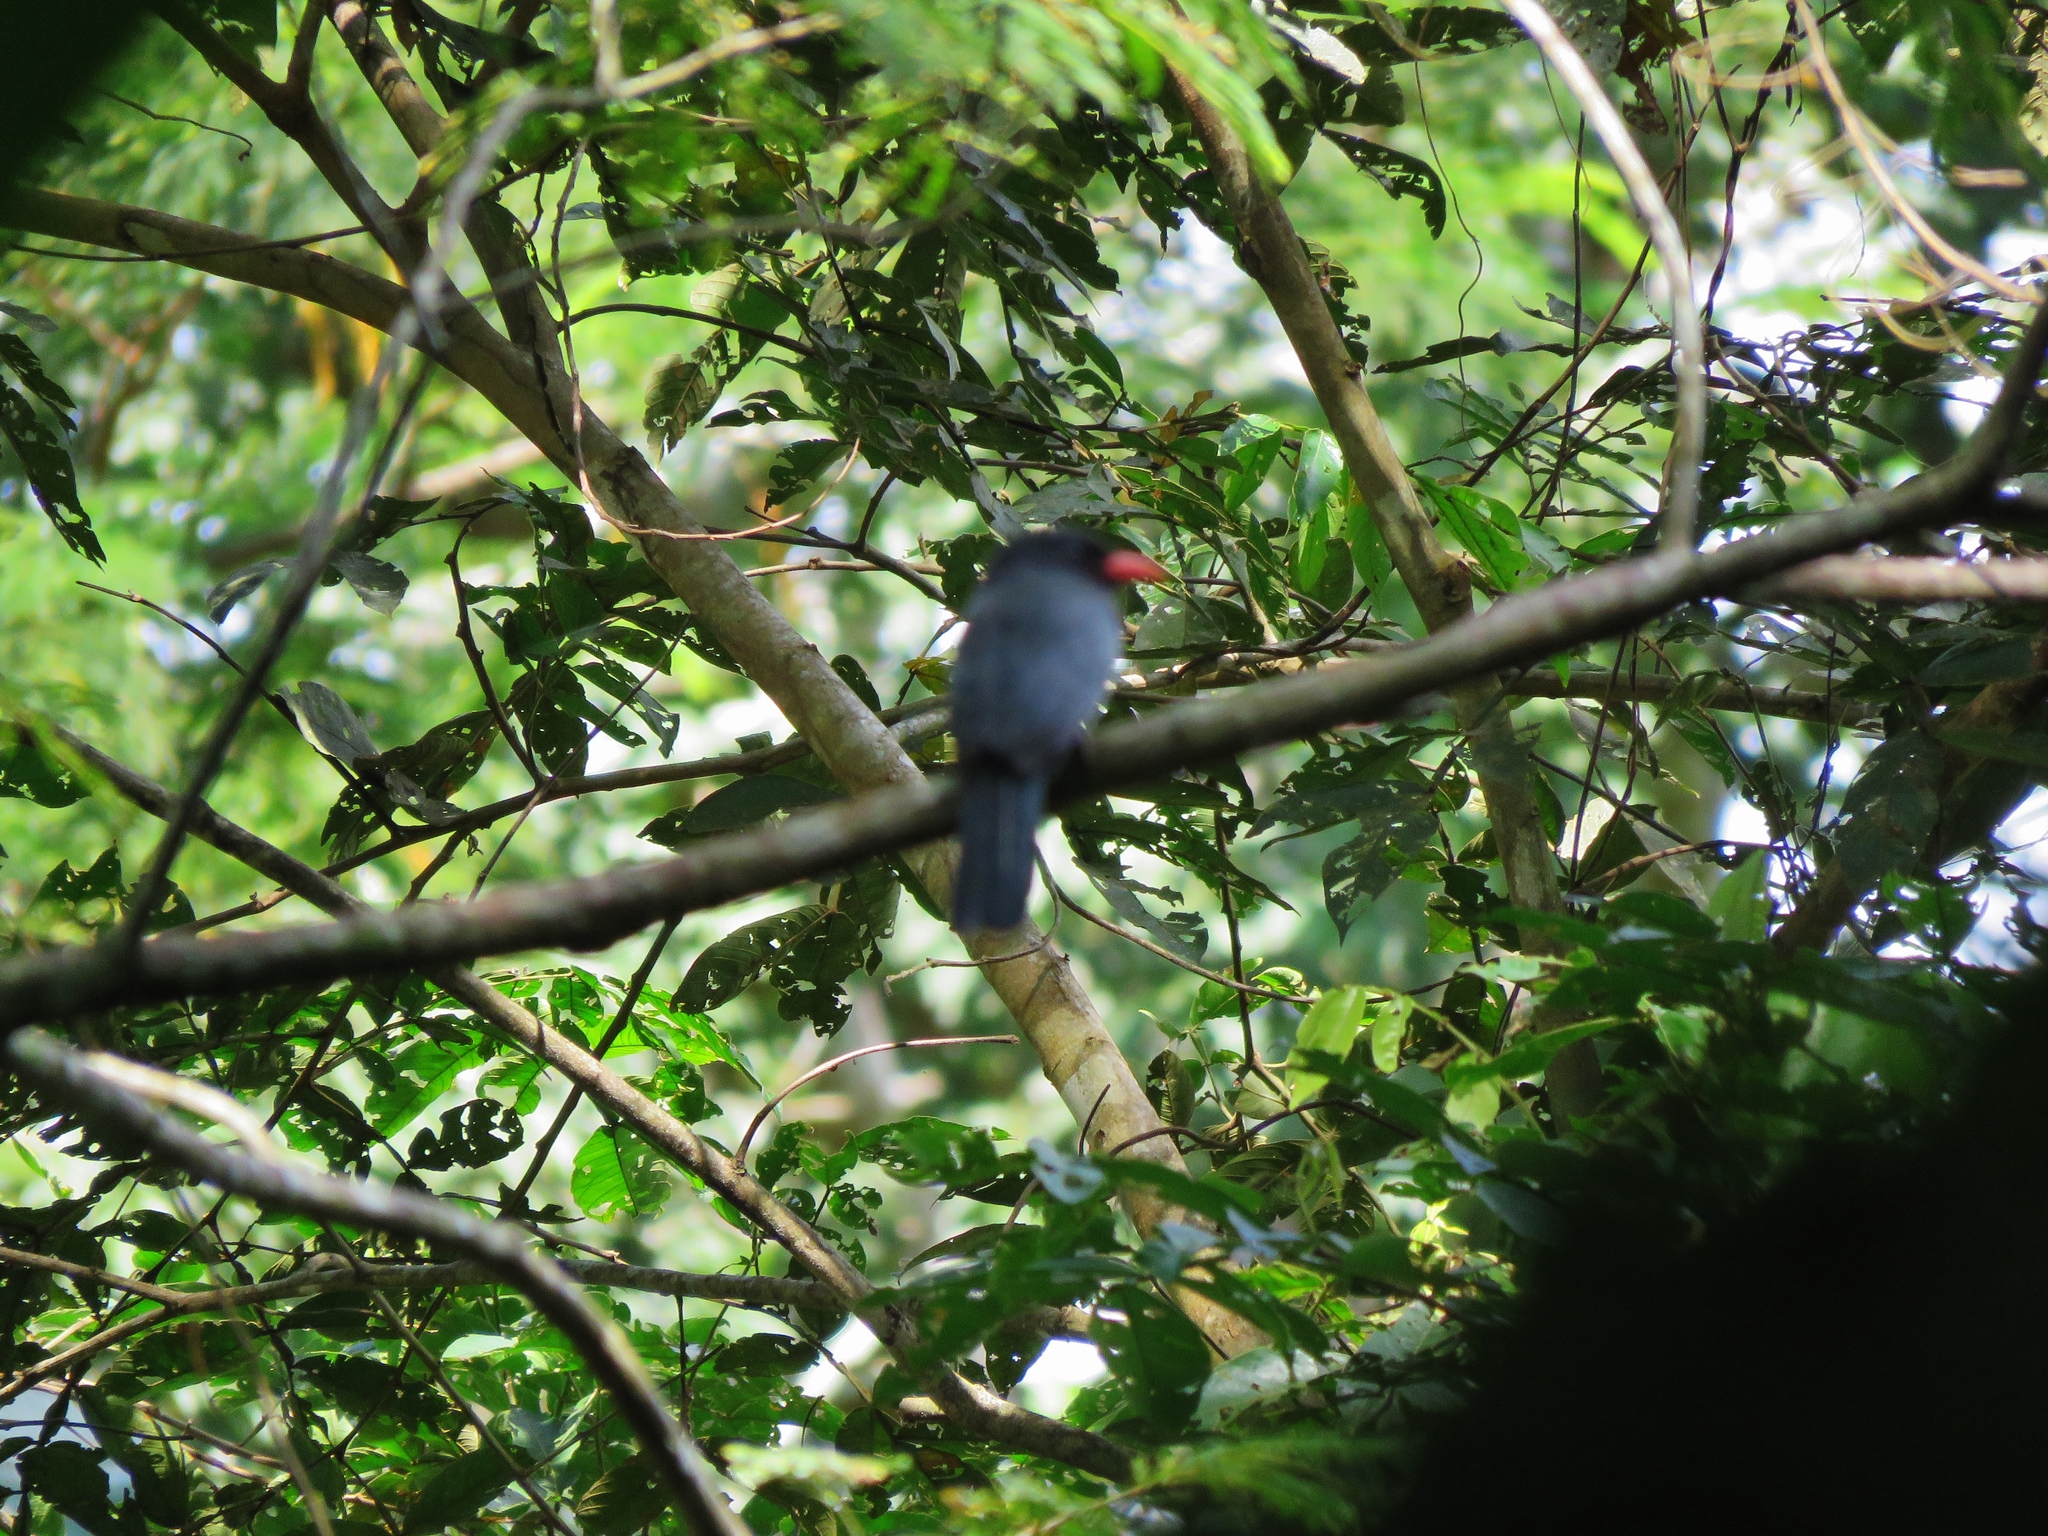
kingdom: Animalia
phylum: Chordata
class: Aves
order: Piciformes
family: Bucconidae
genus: Monasa
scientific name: Monasa nigrifrons
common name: Black-fronted nunbird
